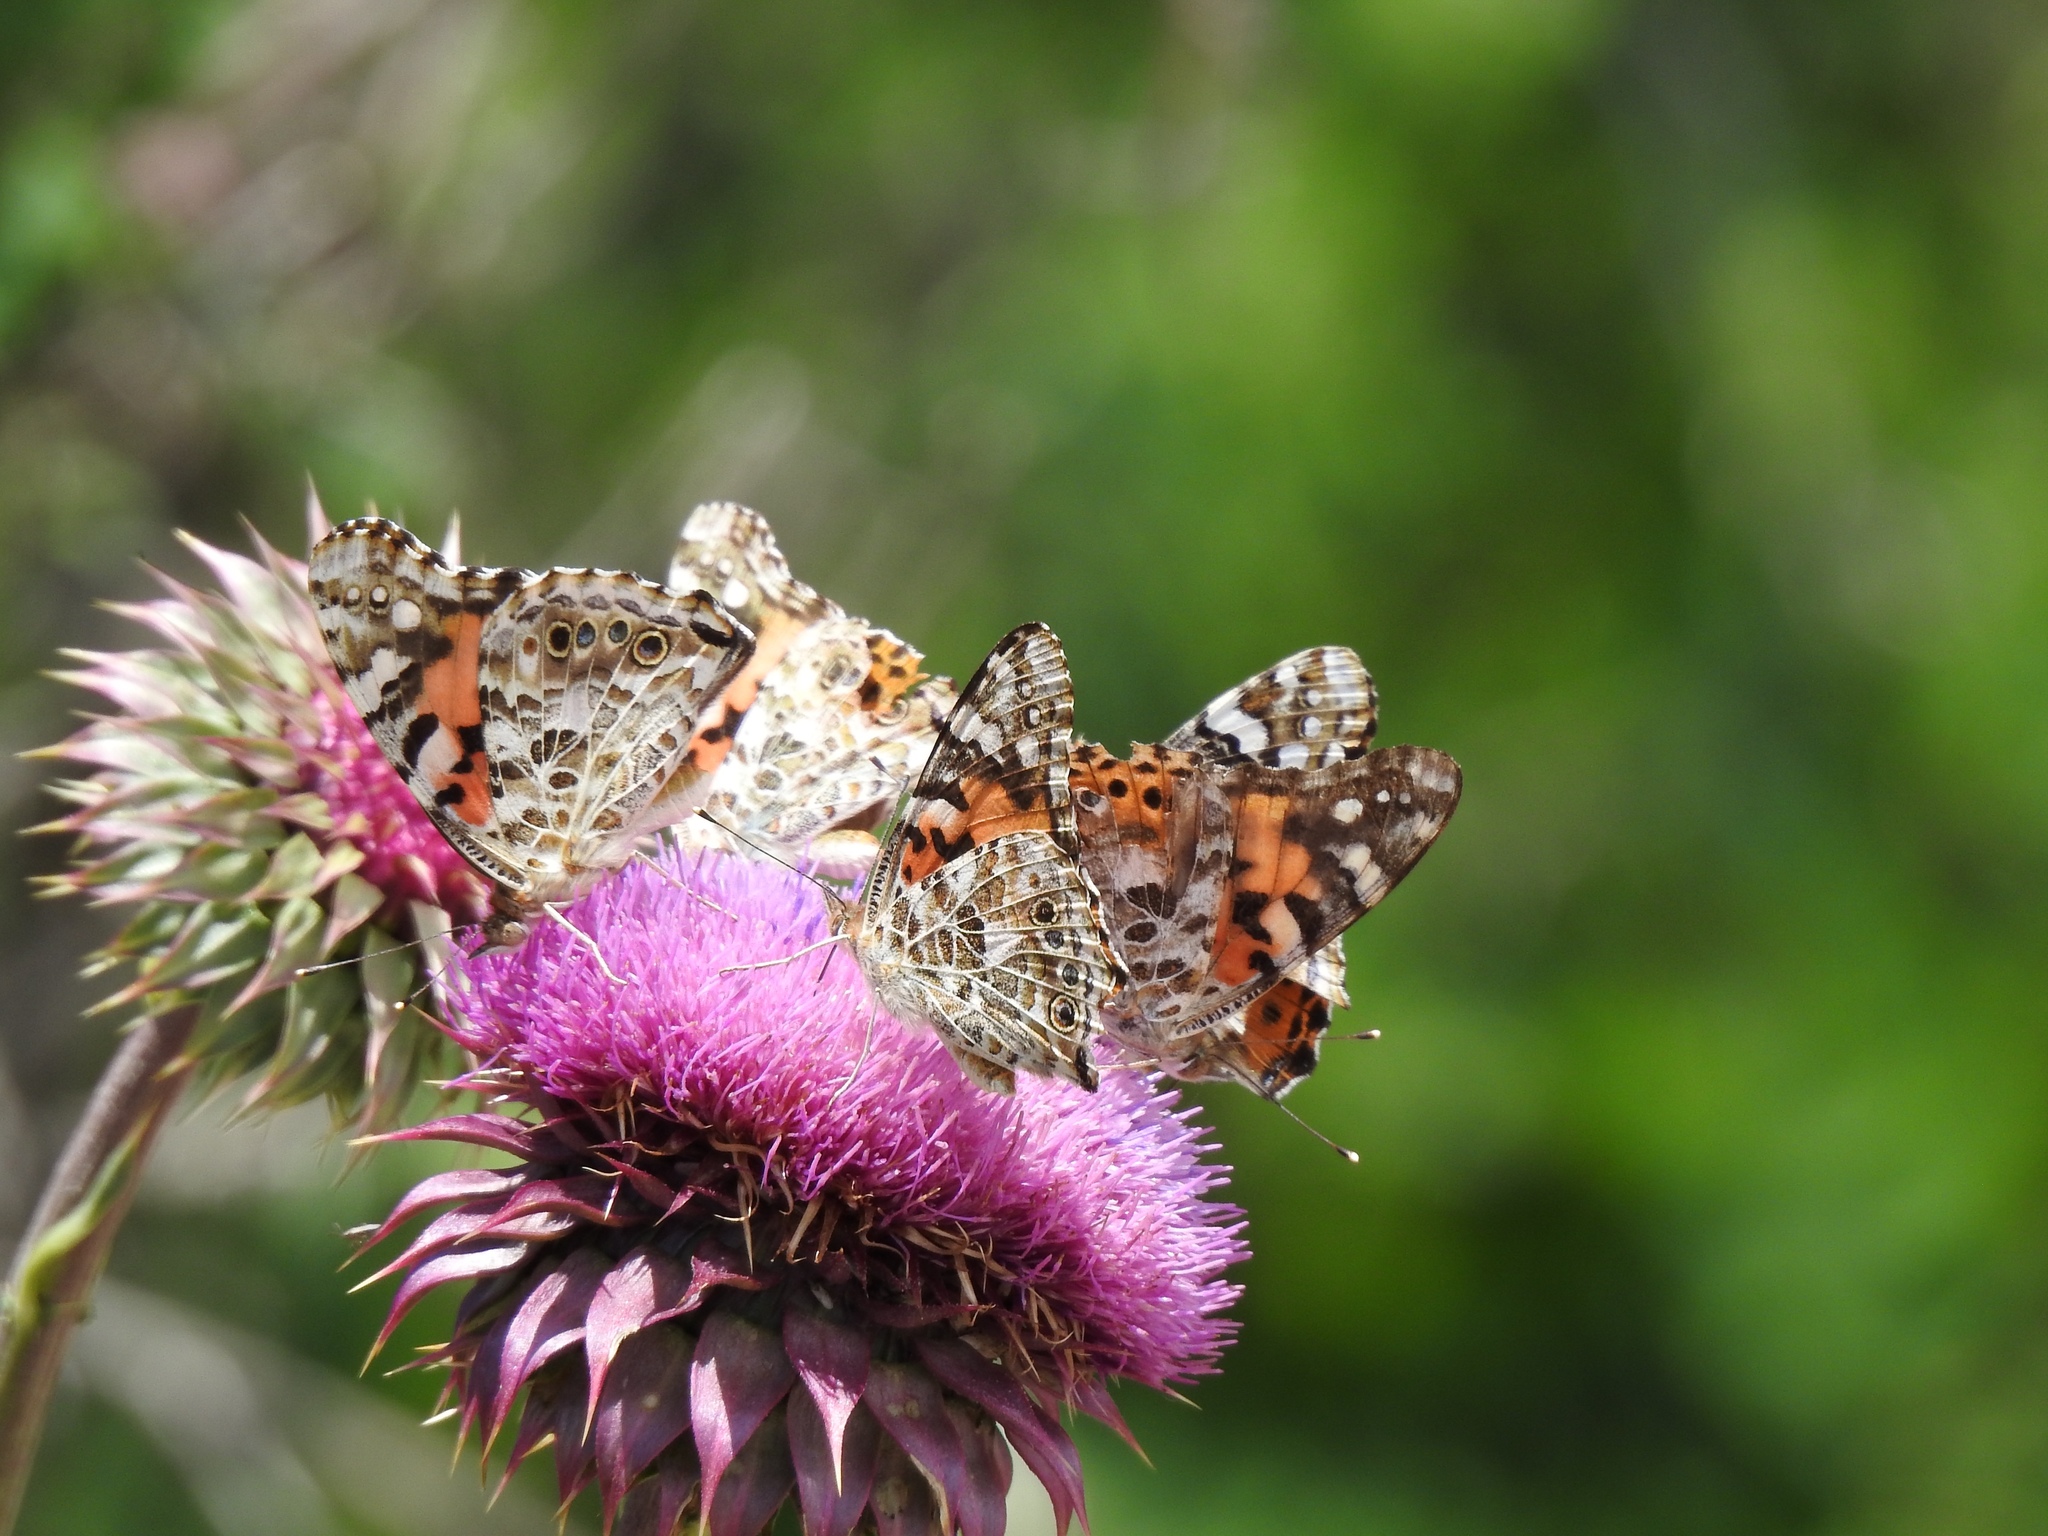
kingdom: Animalia
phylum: Arthropoda
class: Insecta
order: Lepidoptera
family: Nymphalidae
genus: Vanessa
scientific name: Vanessa cardui
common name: Painted lady
